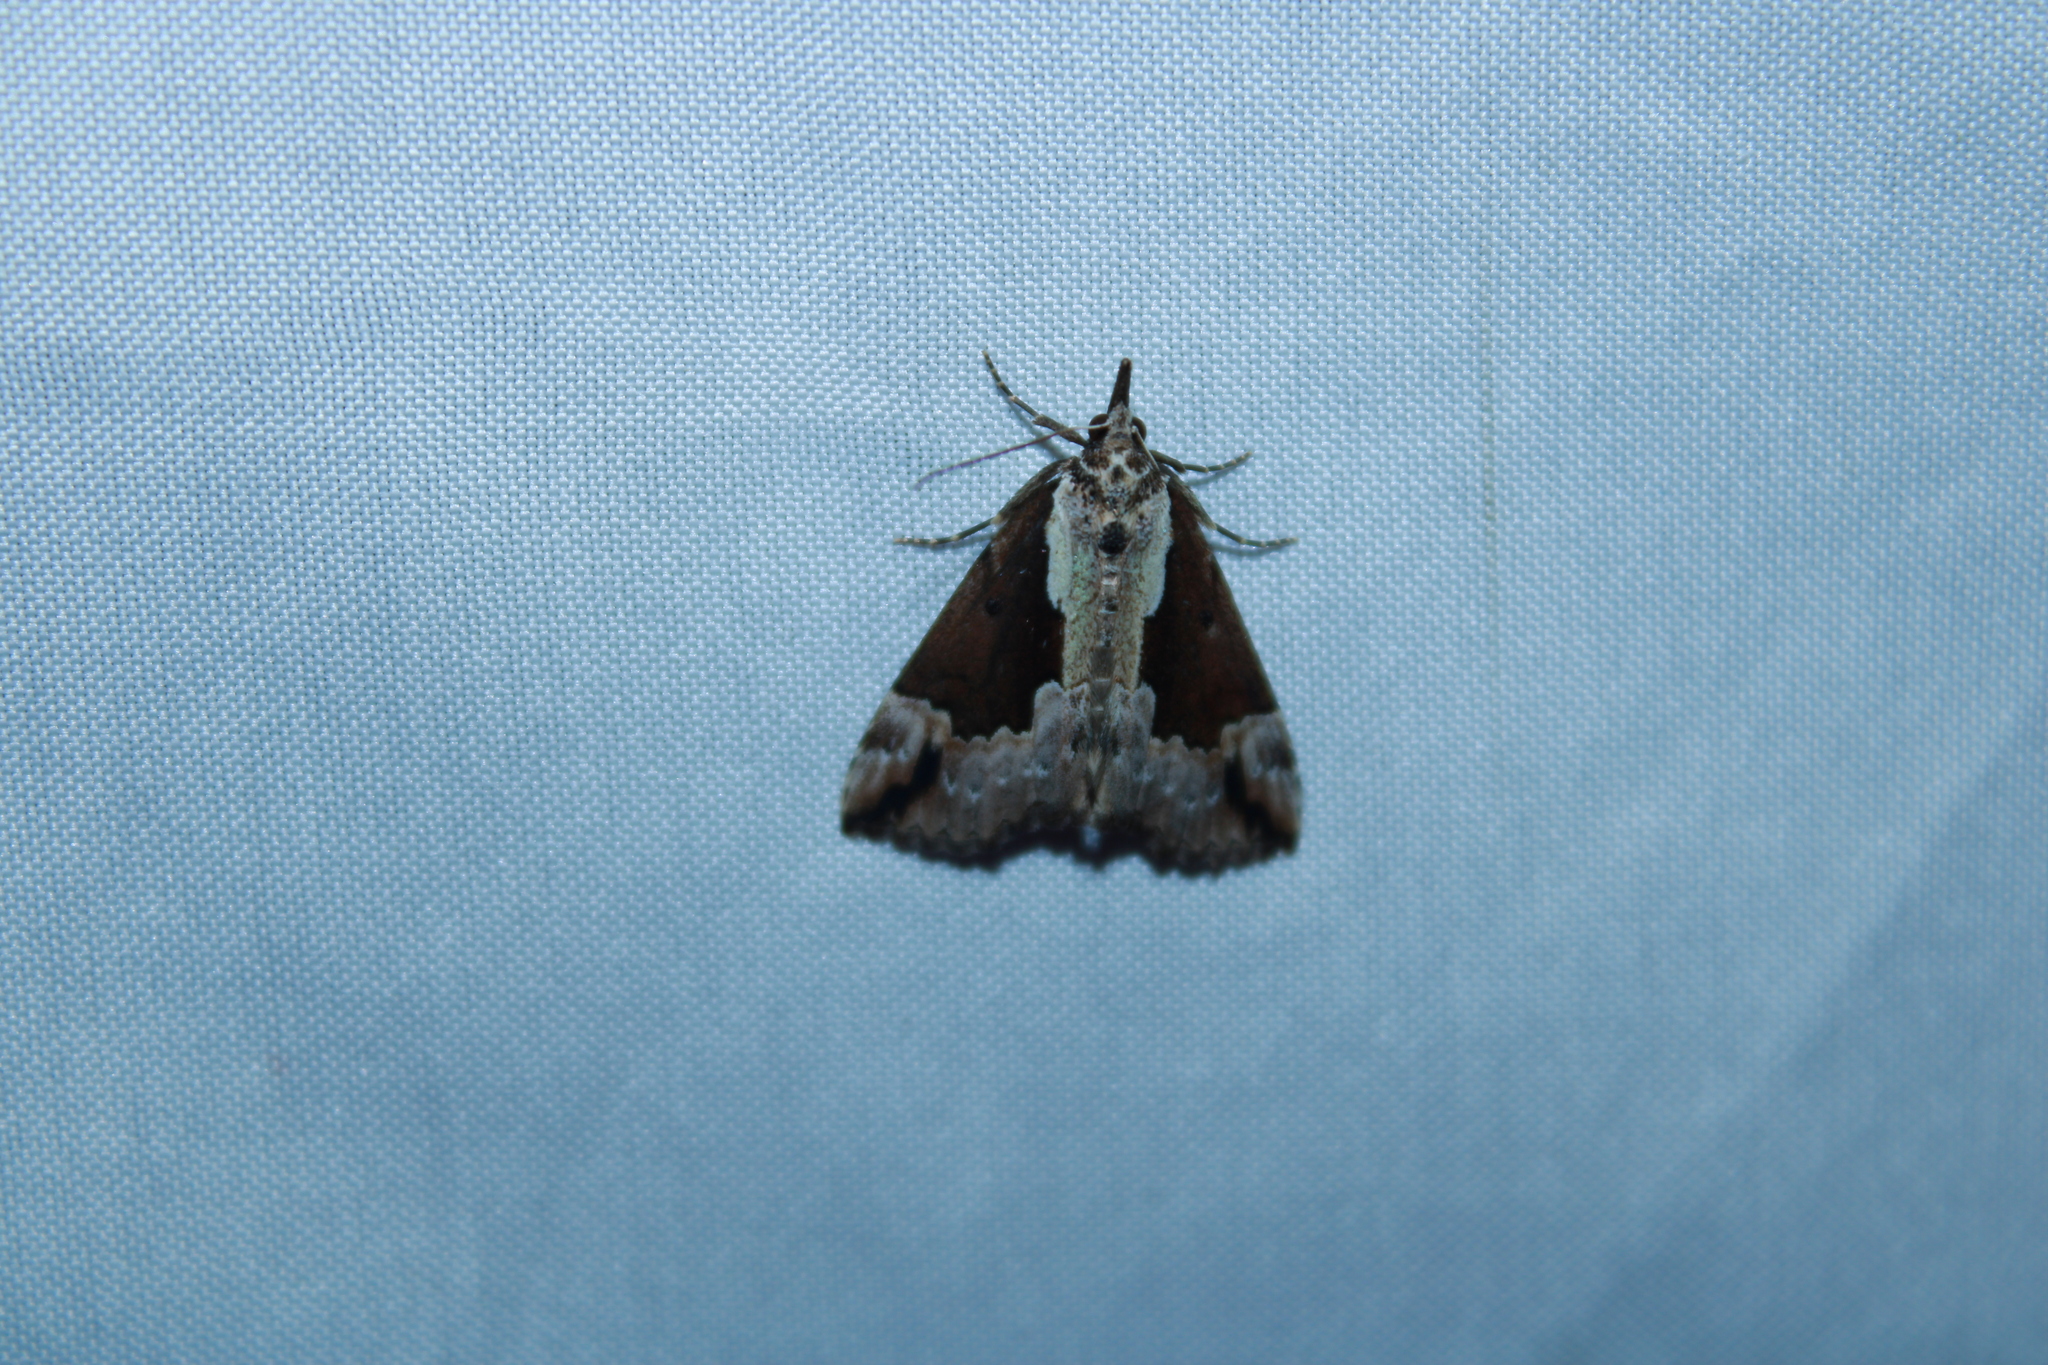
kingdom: Animalia
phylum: Arthropoda
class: Insecta
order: Lepidoptera
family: Erebidae
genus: Hypena
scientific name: Hypena baltimoralis
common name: Baltimore snout
